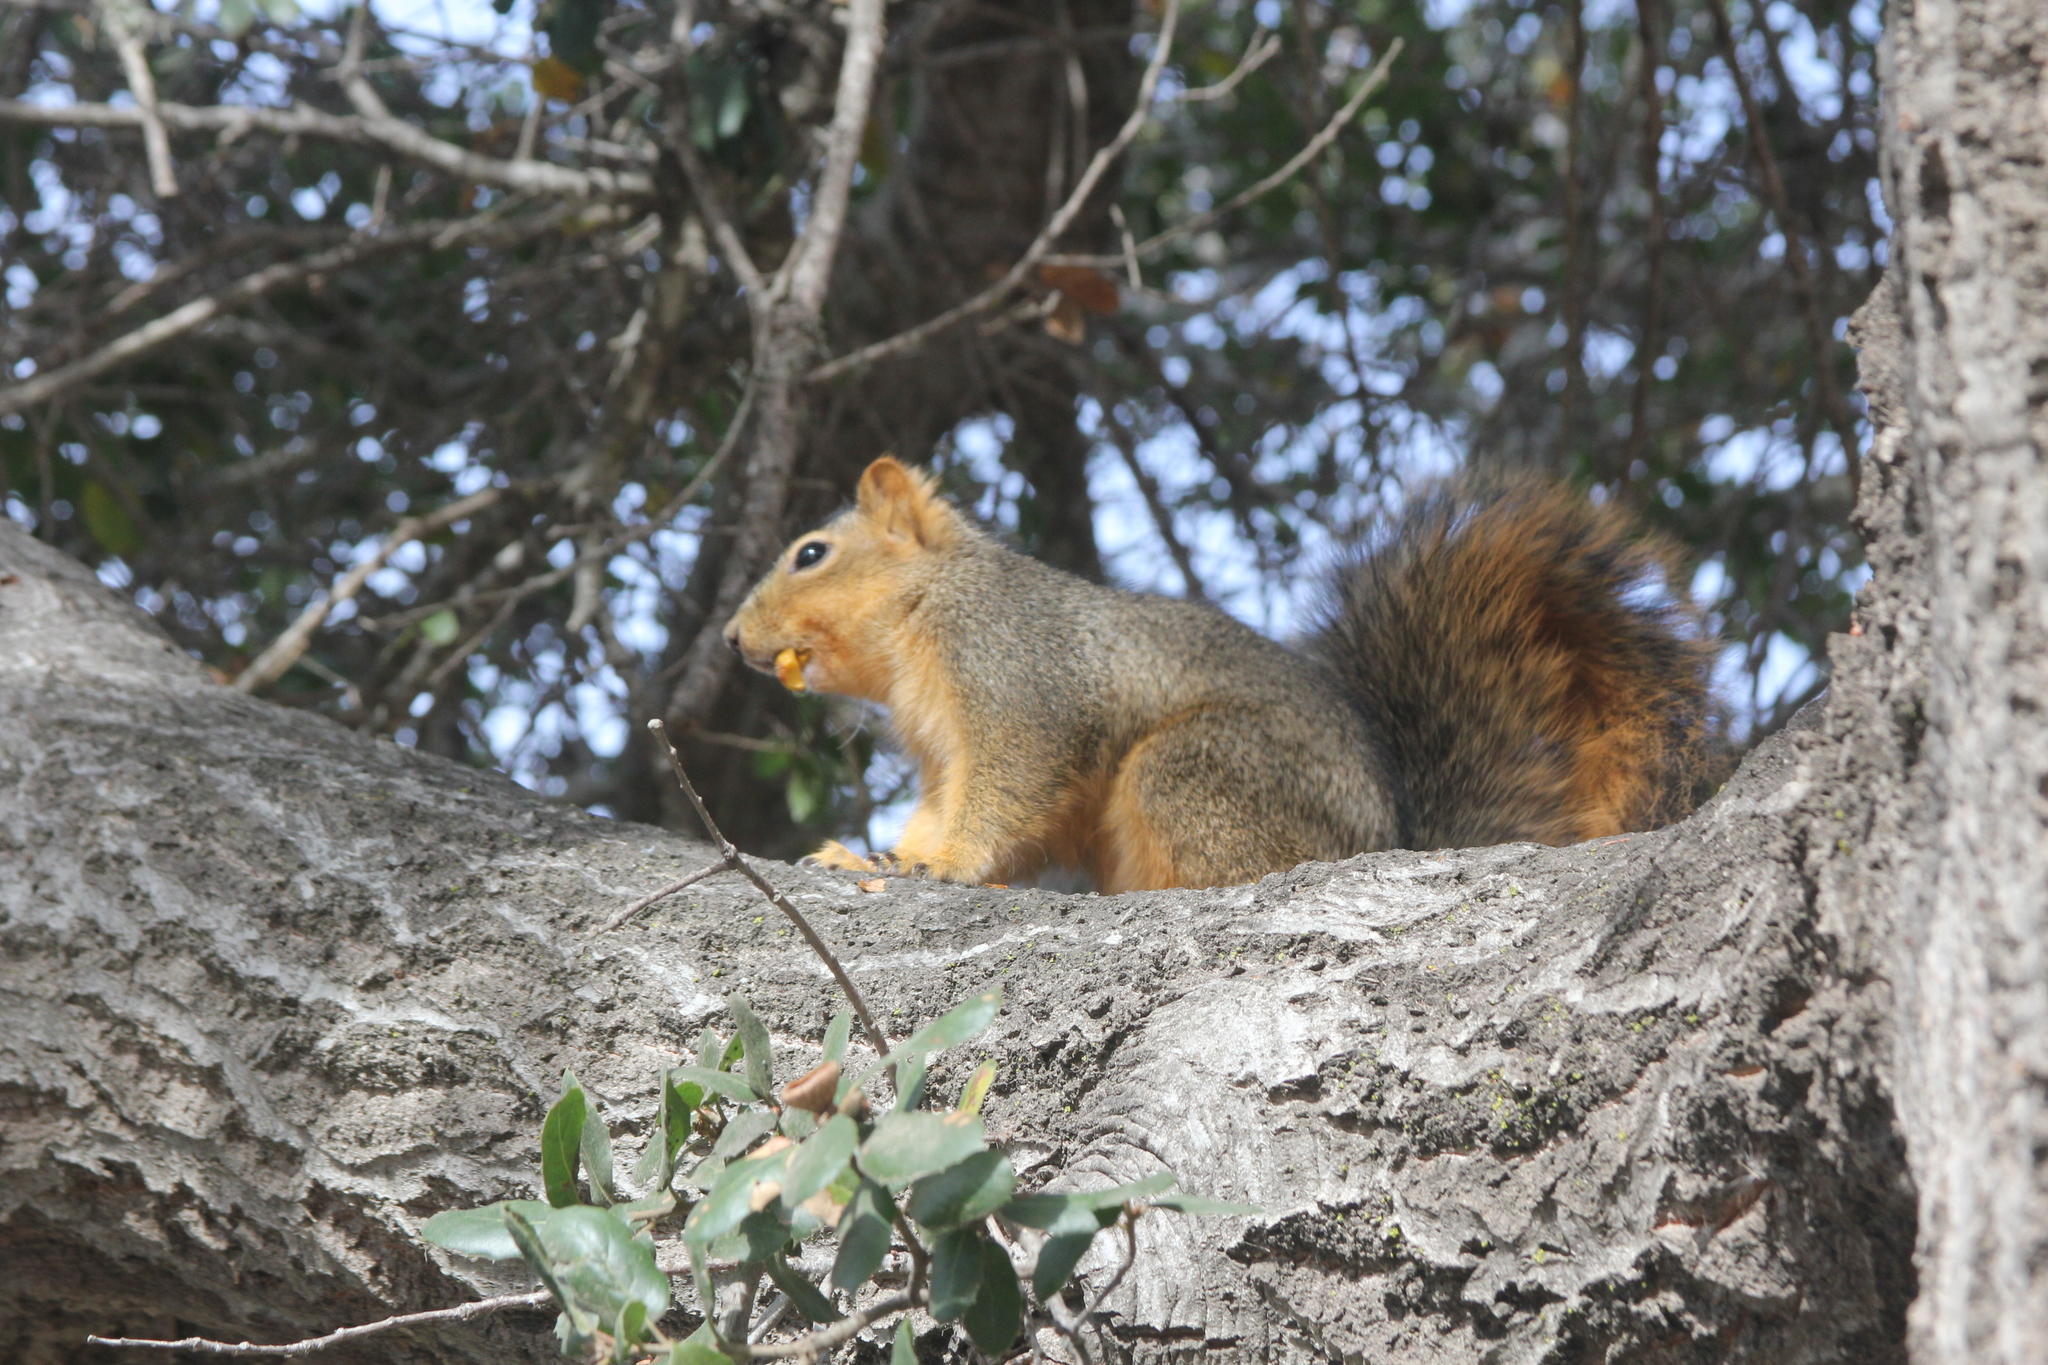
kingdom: Animalia
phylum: Chordata
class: Mammalia
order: Rodentia
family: Sciuridae
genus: Sciurus
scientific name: Sciurus niger
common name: Fox squirrel
